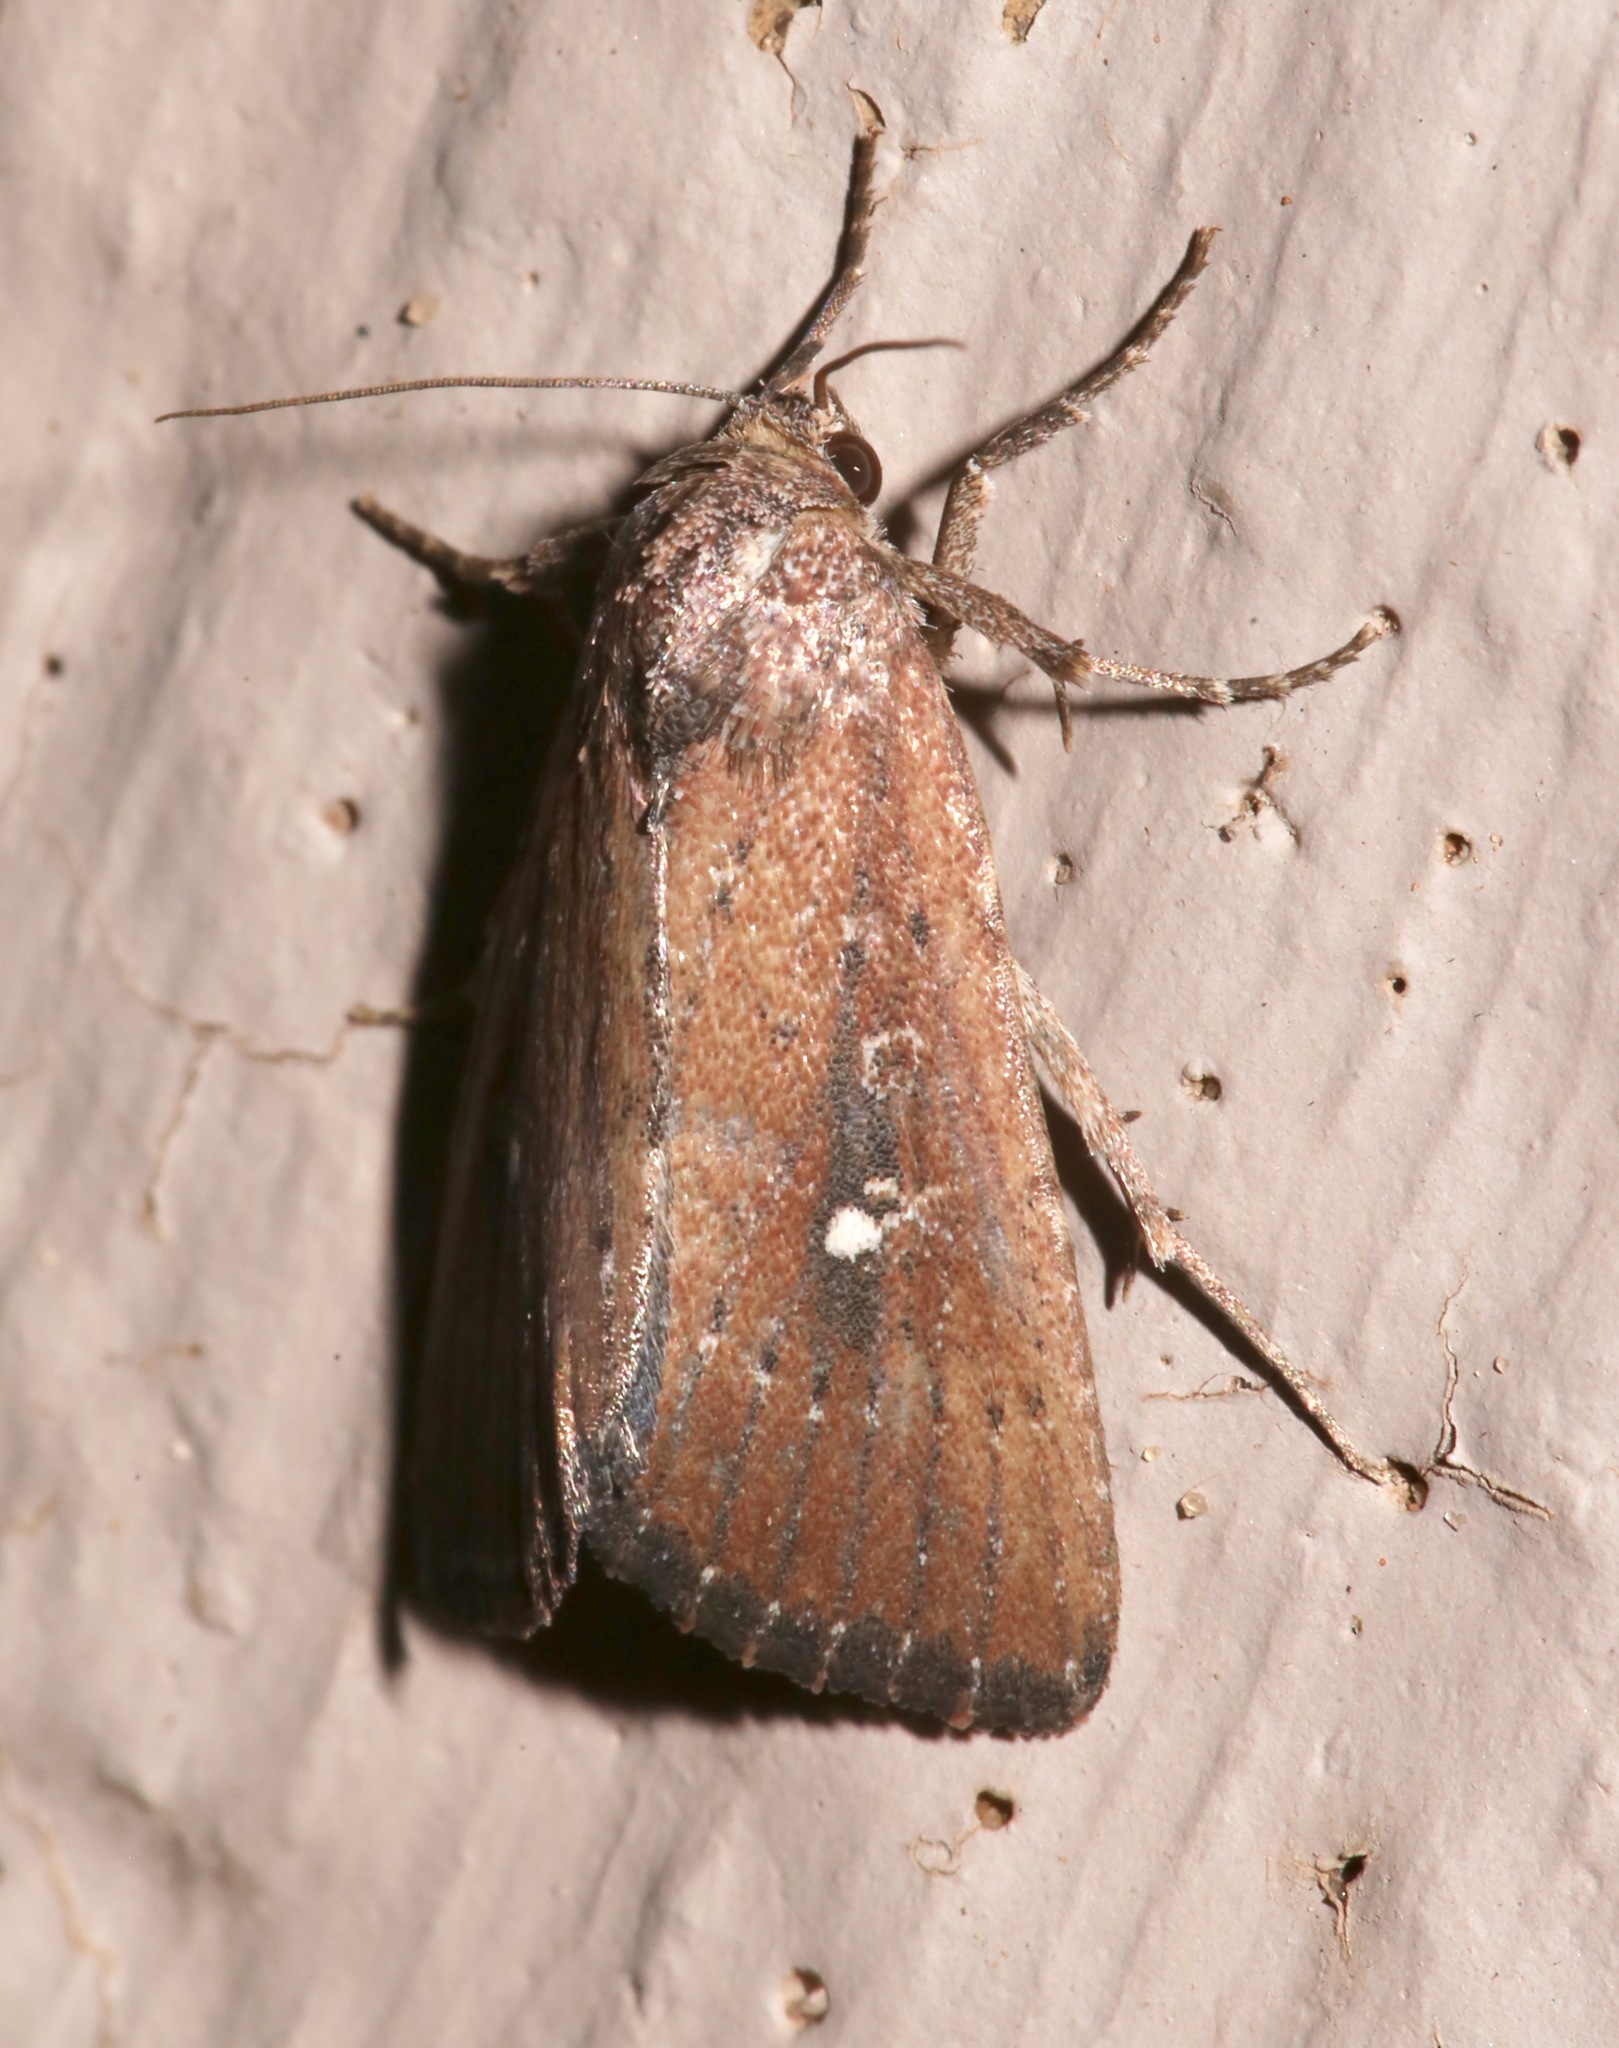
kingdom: Animalia
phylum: Arthropoda
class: Insecta
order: Lepidoptera
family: Noctuidae
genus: Condica
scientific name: Condica videns
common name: White-dotted groundling
